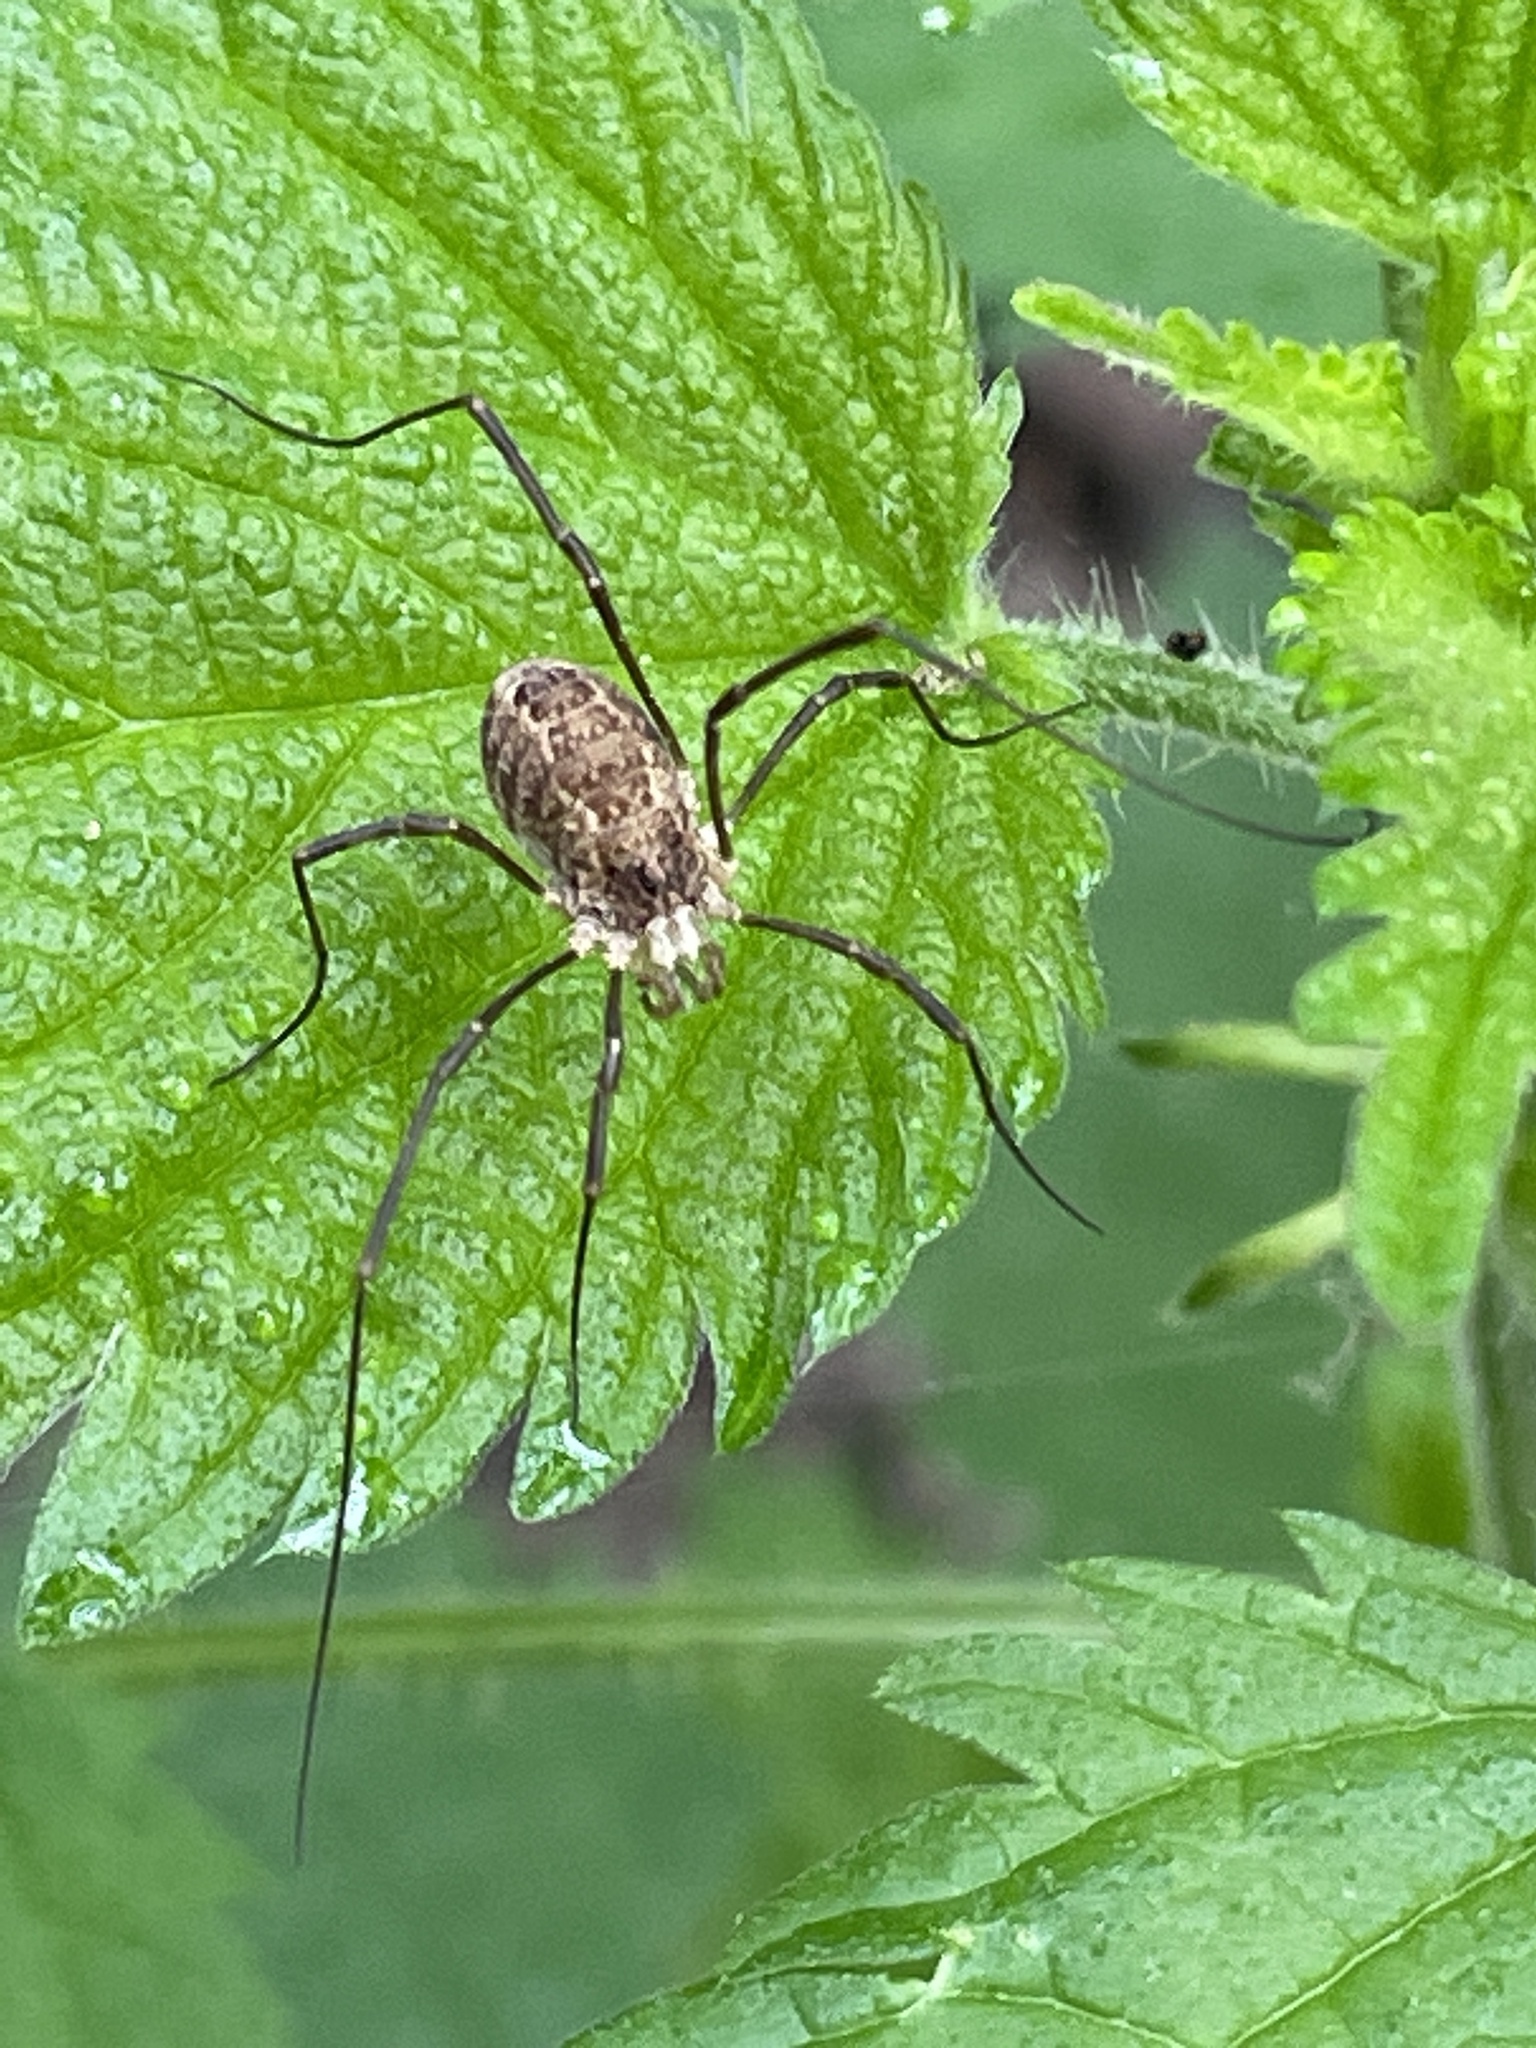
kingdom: Animalia
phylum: Arthropoda
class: Arachnida
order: Opiliones
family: Phalangiidae
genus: Rilaena
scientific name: Rilaena triangularis
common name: Spring harvestman
